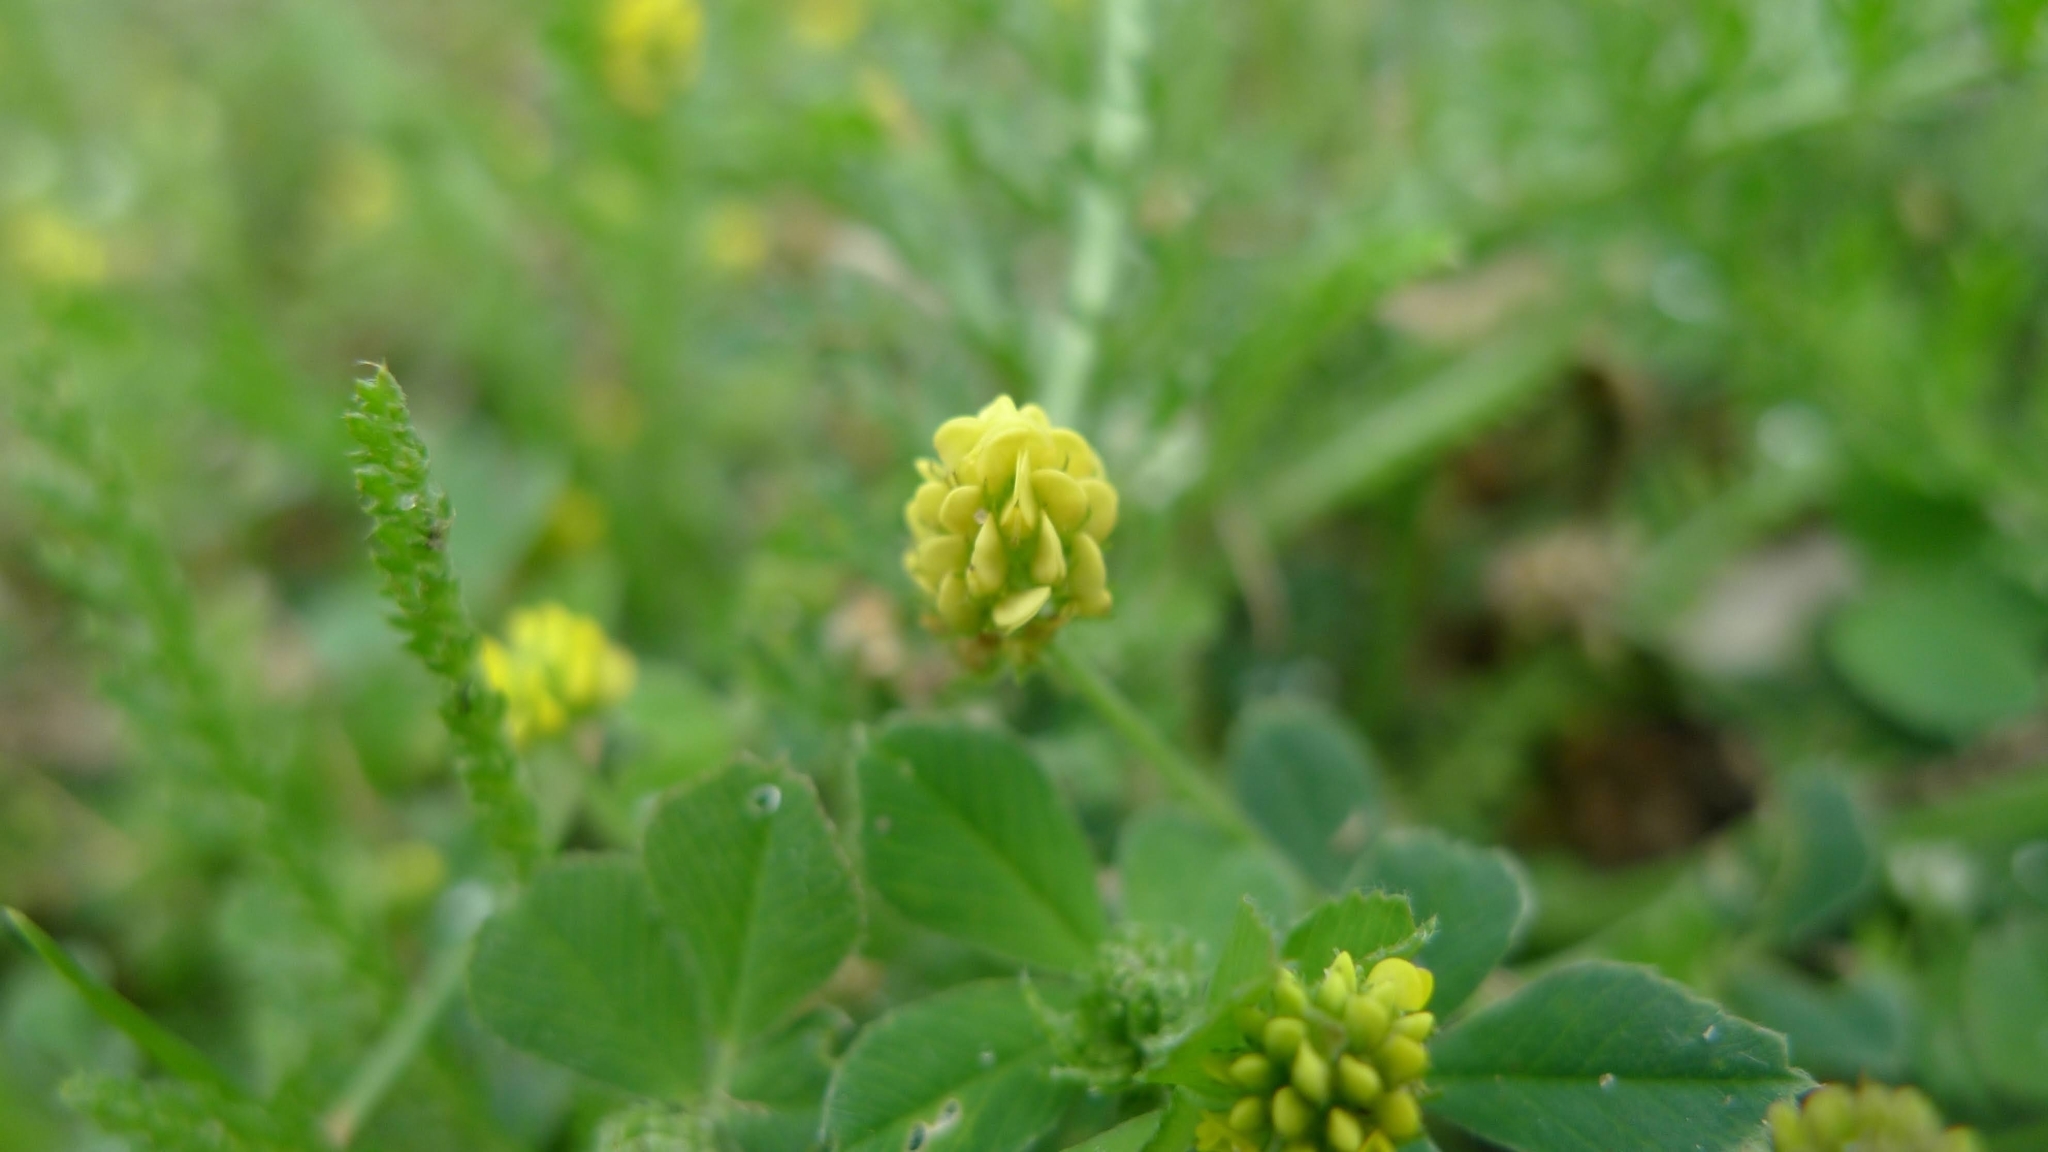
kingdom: Plantae
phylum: Tracheophyta
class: Magnoliopsida
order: Fabales
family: Fabaceae
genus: Medicago
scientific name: Medicago lupulina
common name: Black medick
